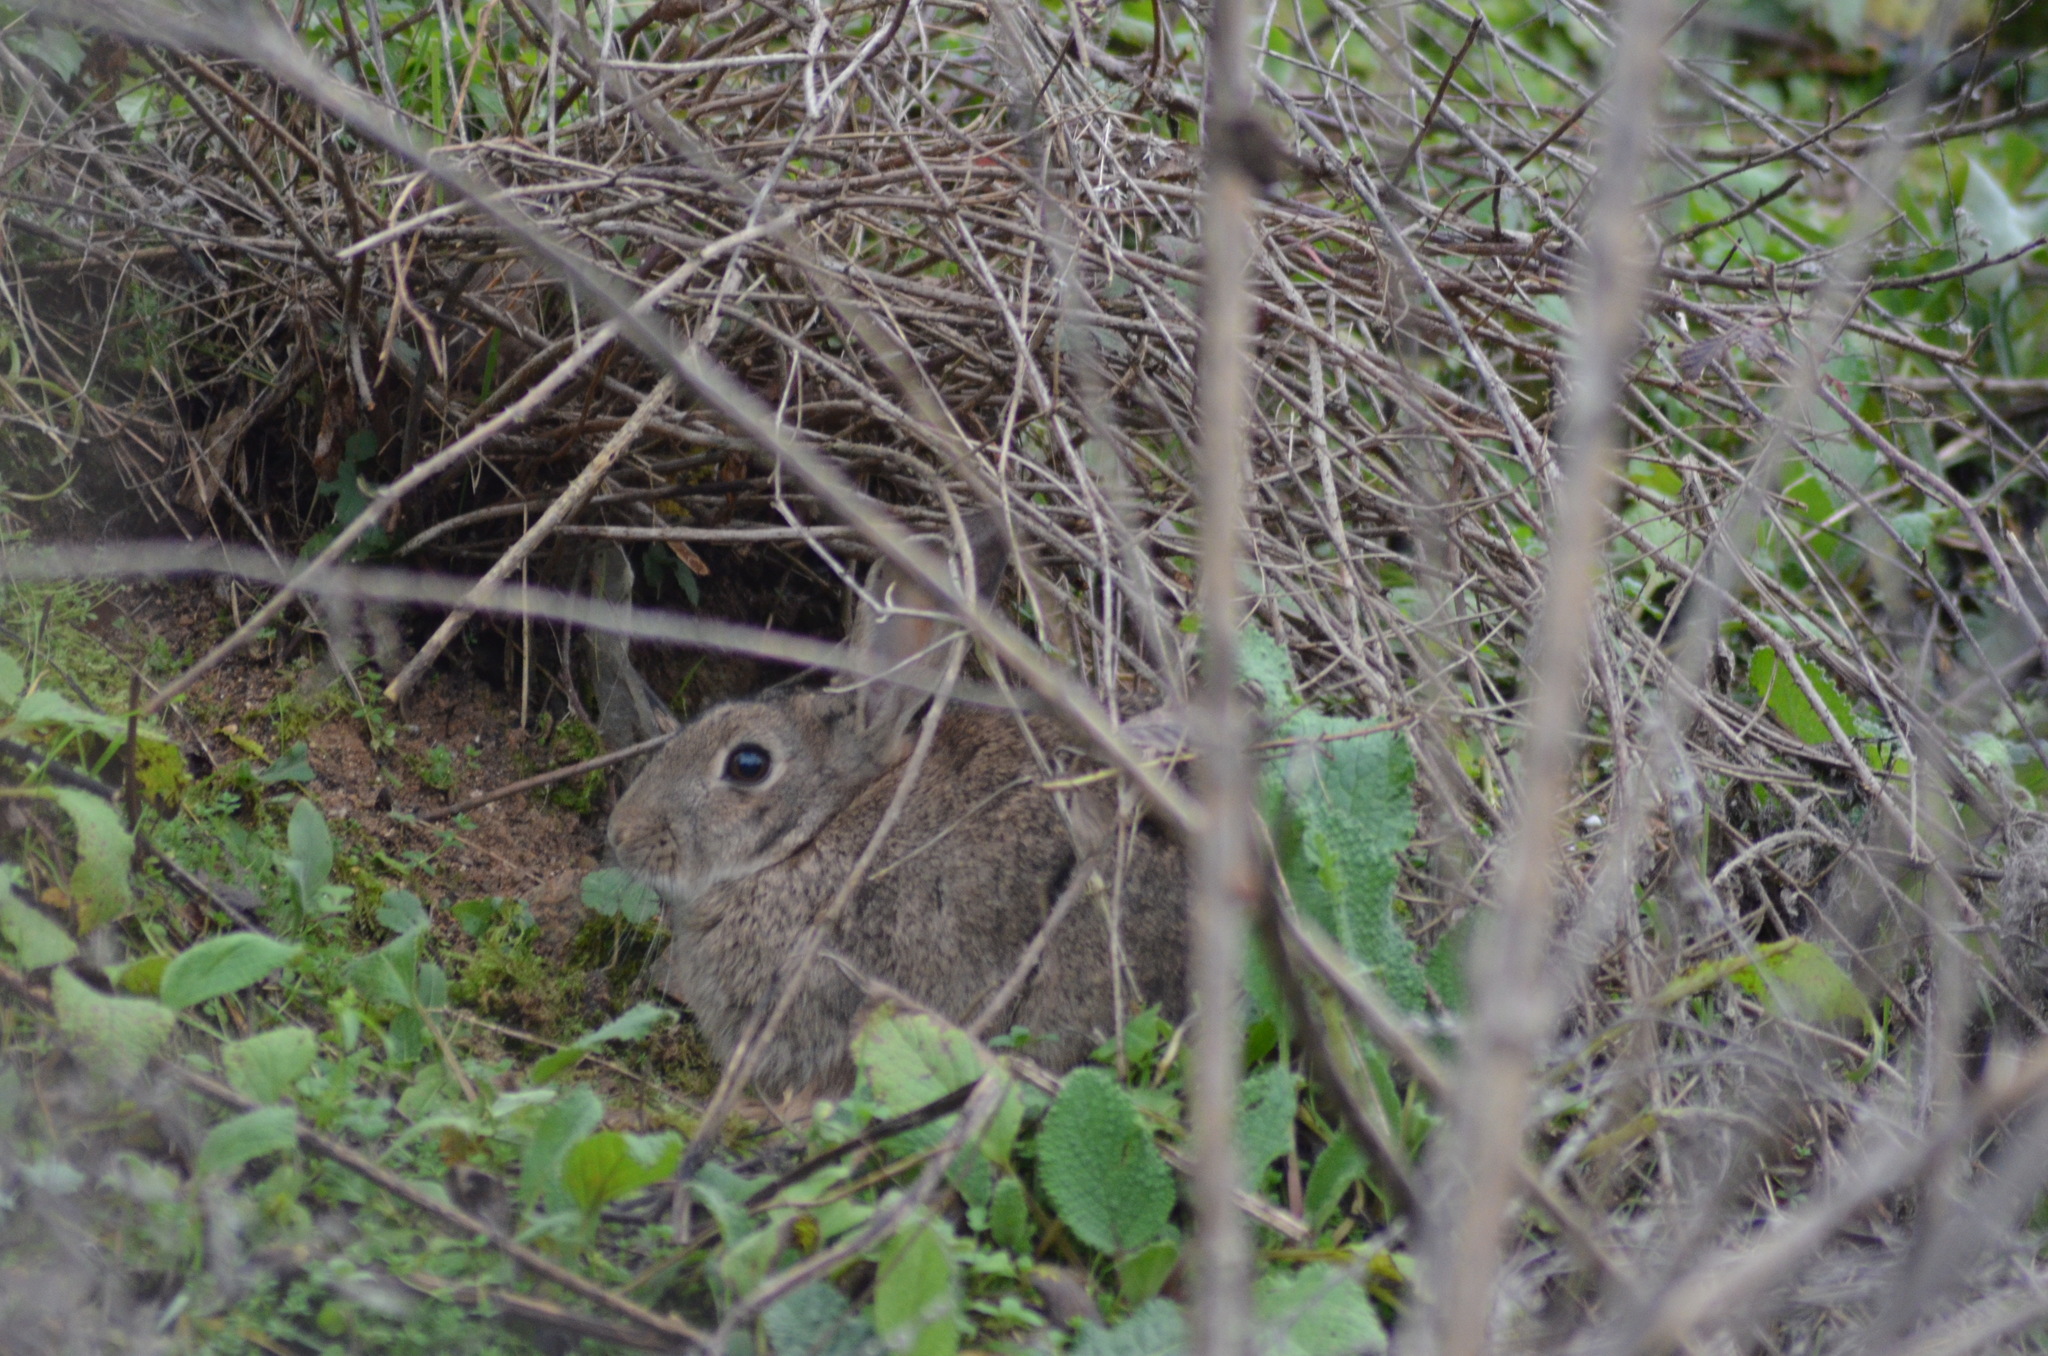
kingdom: Animalia
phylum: Chordata
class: Mammalia
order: Lagomorpha
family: Leporidae
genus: Oryctolagus
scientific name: Oryctolagus cuniculus
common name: European rabbit
